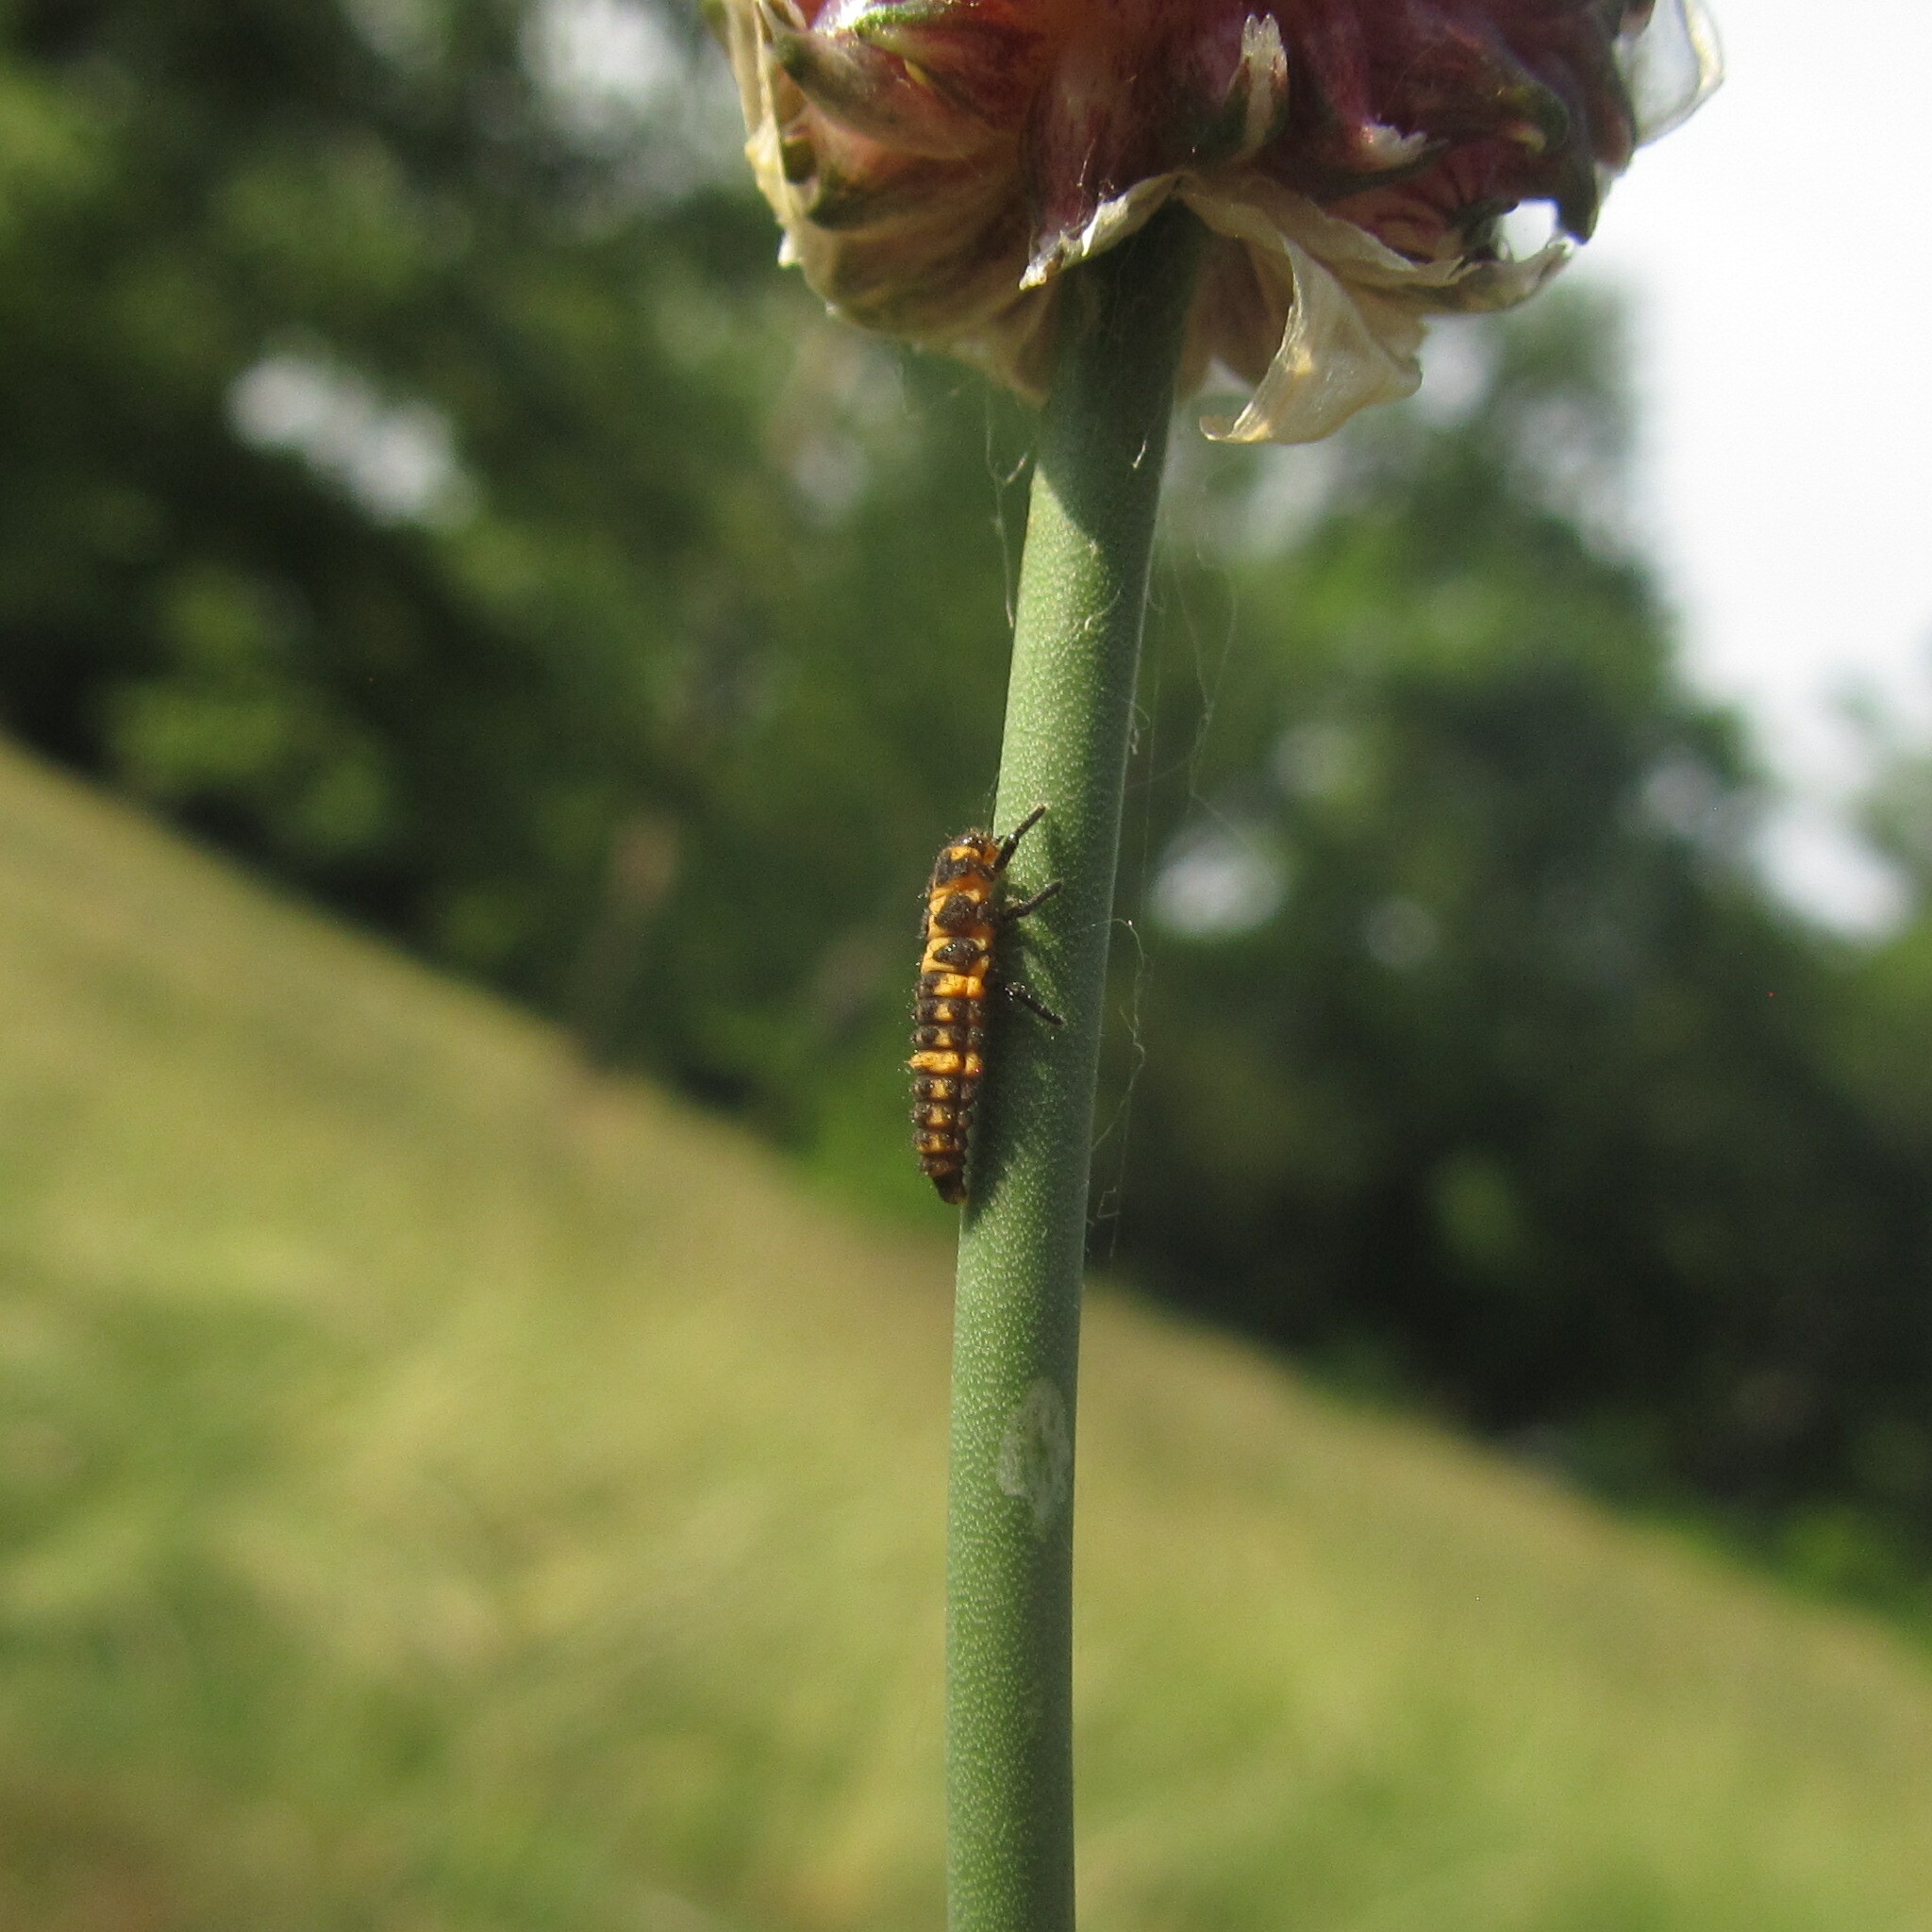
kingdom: Animalia
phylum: Arthropoda
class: Insecta
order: Coleoptera
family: Coccinellidae
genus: Coleomegilla
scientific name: Coleomegilla maculata
